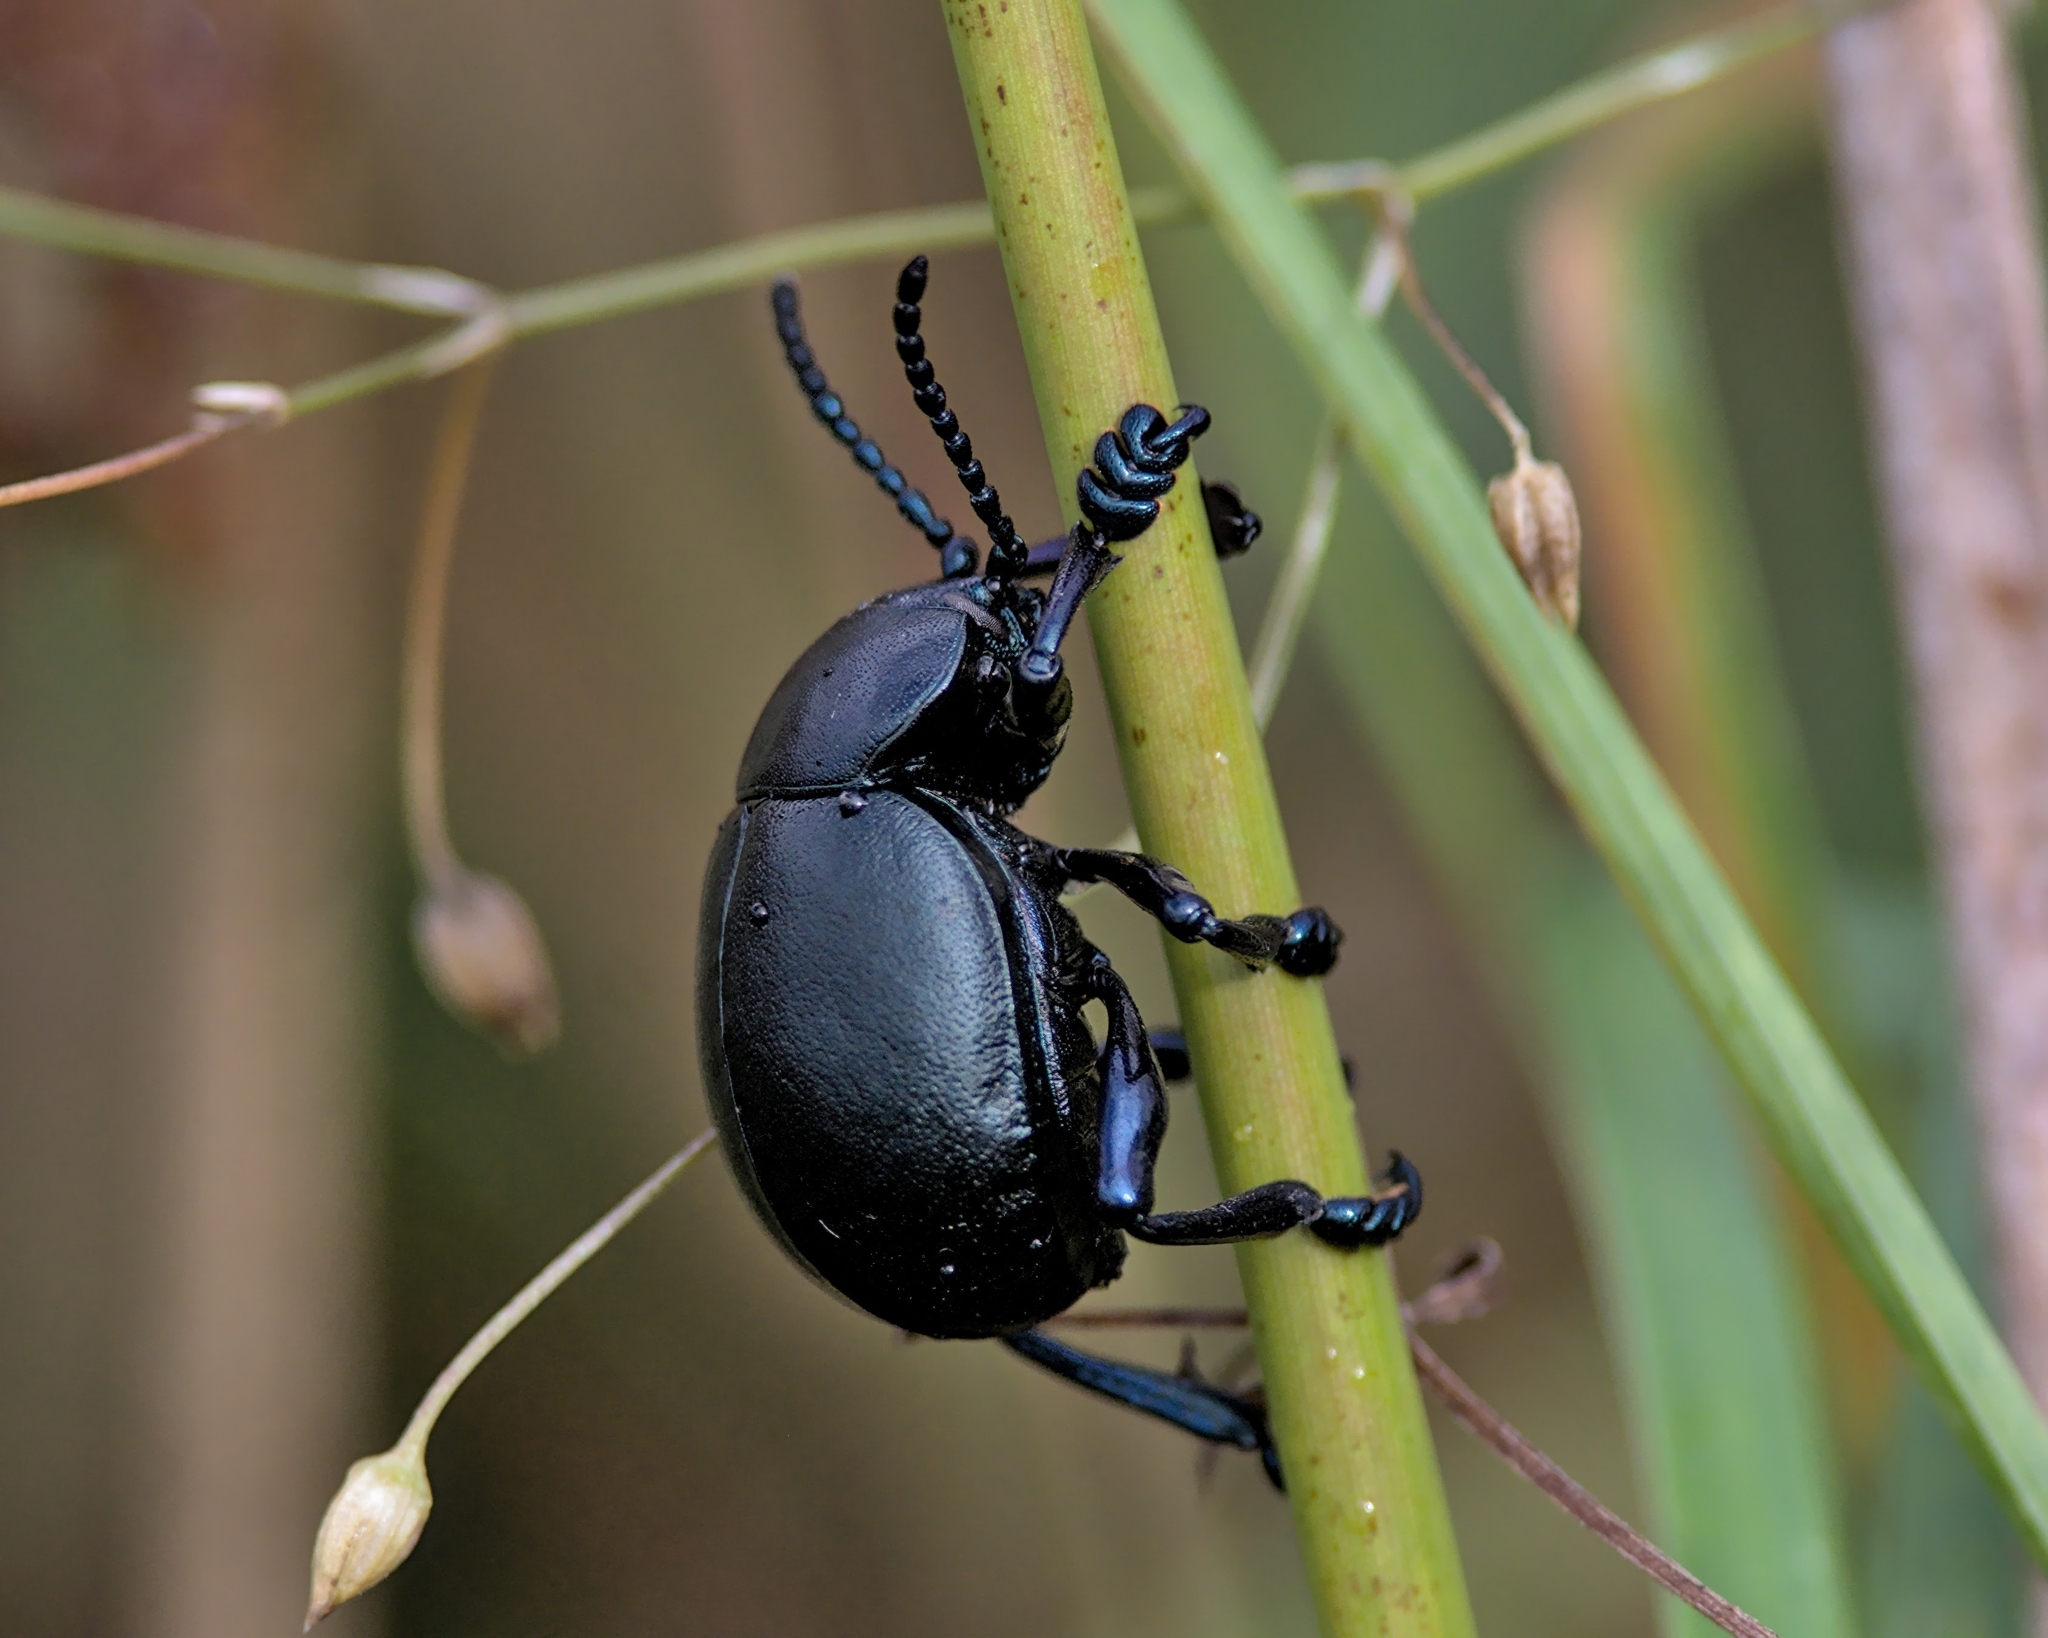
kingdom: Animalia
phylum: Arthropoda
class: Insecta
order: Coleoptera
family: Chrysomelidae
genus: Timarcha
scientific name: Timarcha tenebricosa
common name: Bloody-nosed beetle
